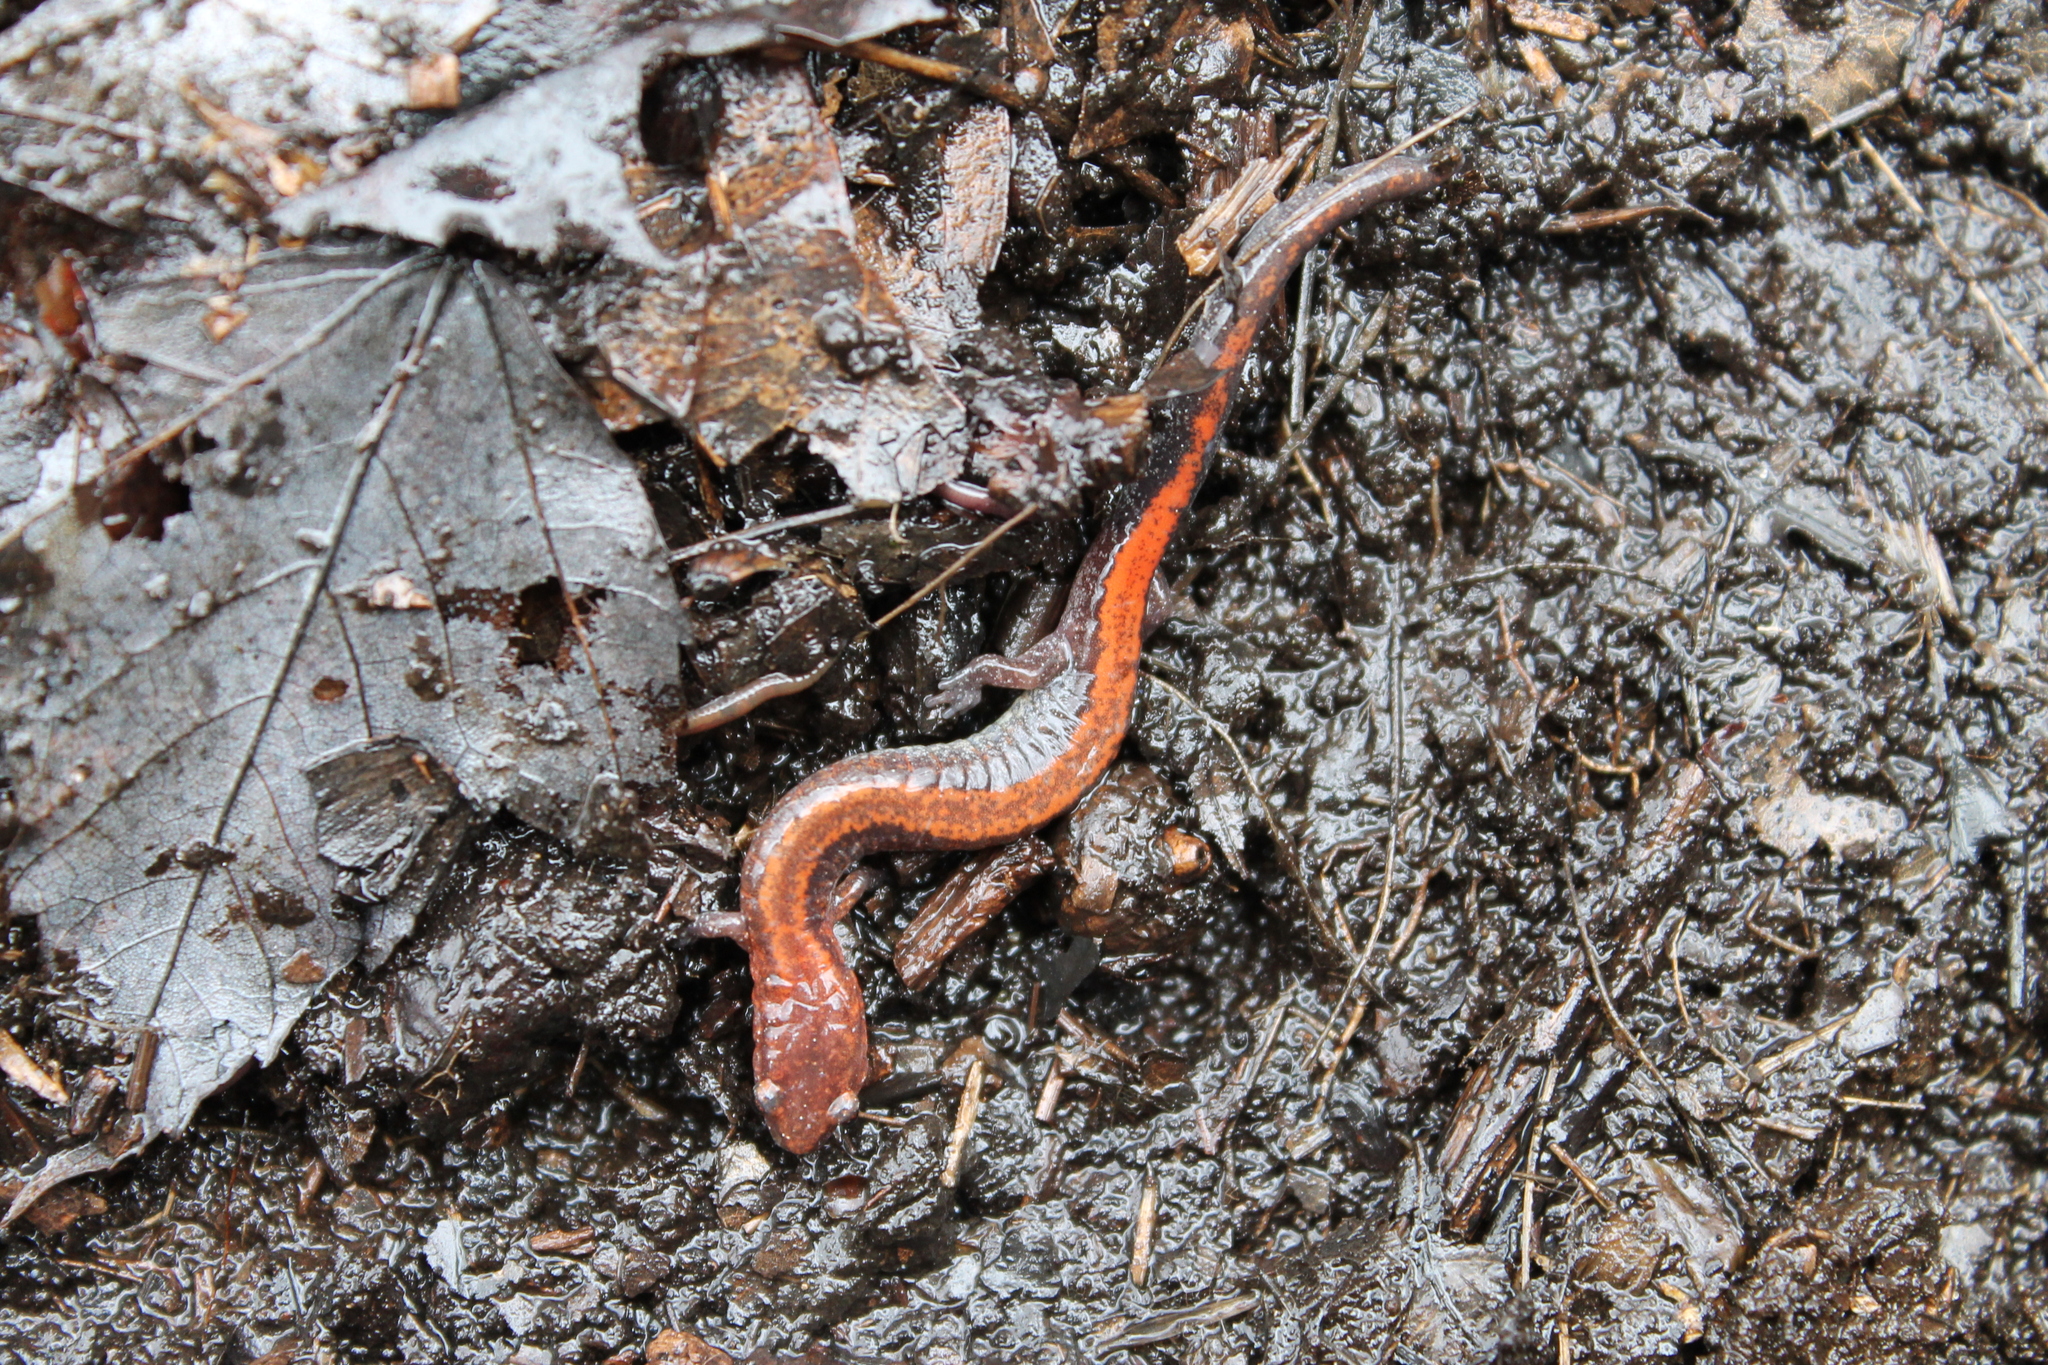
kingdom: Animalia
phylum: Chordata
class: Amphibia
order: Caudata
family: Plethodontidae
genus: Plethodon
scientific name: Plethodon cinereus
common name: Redback salamander
